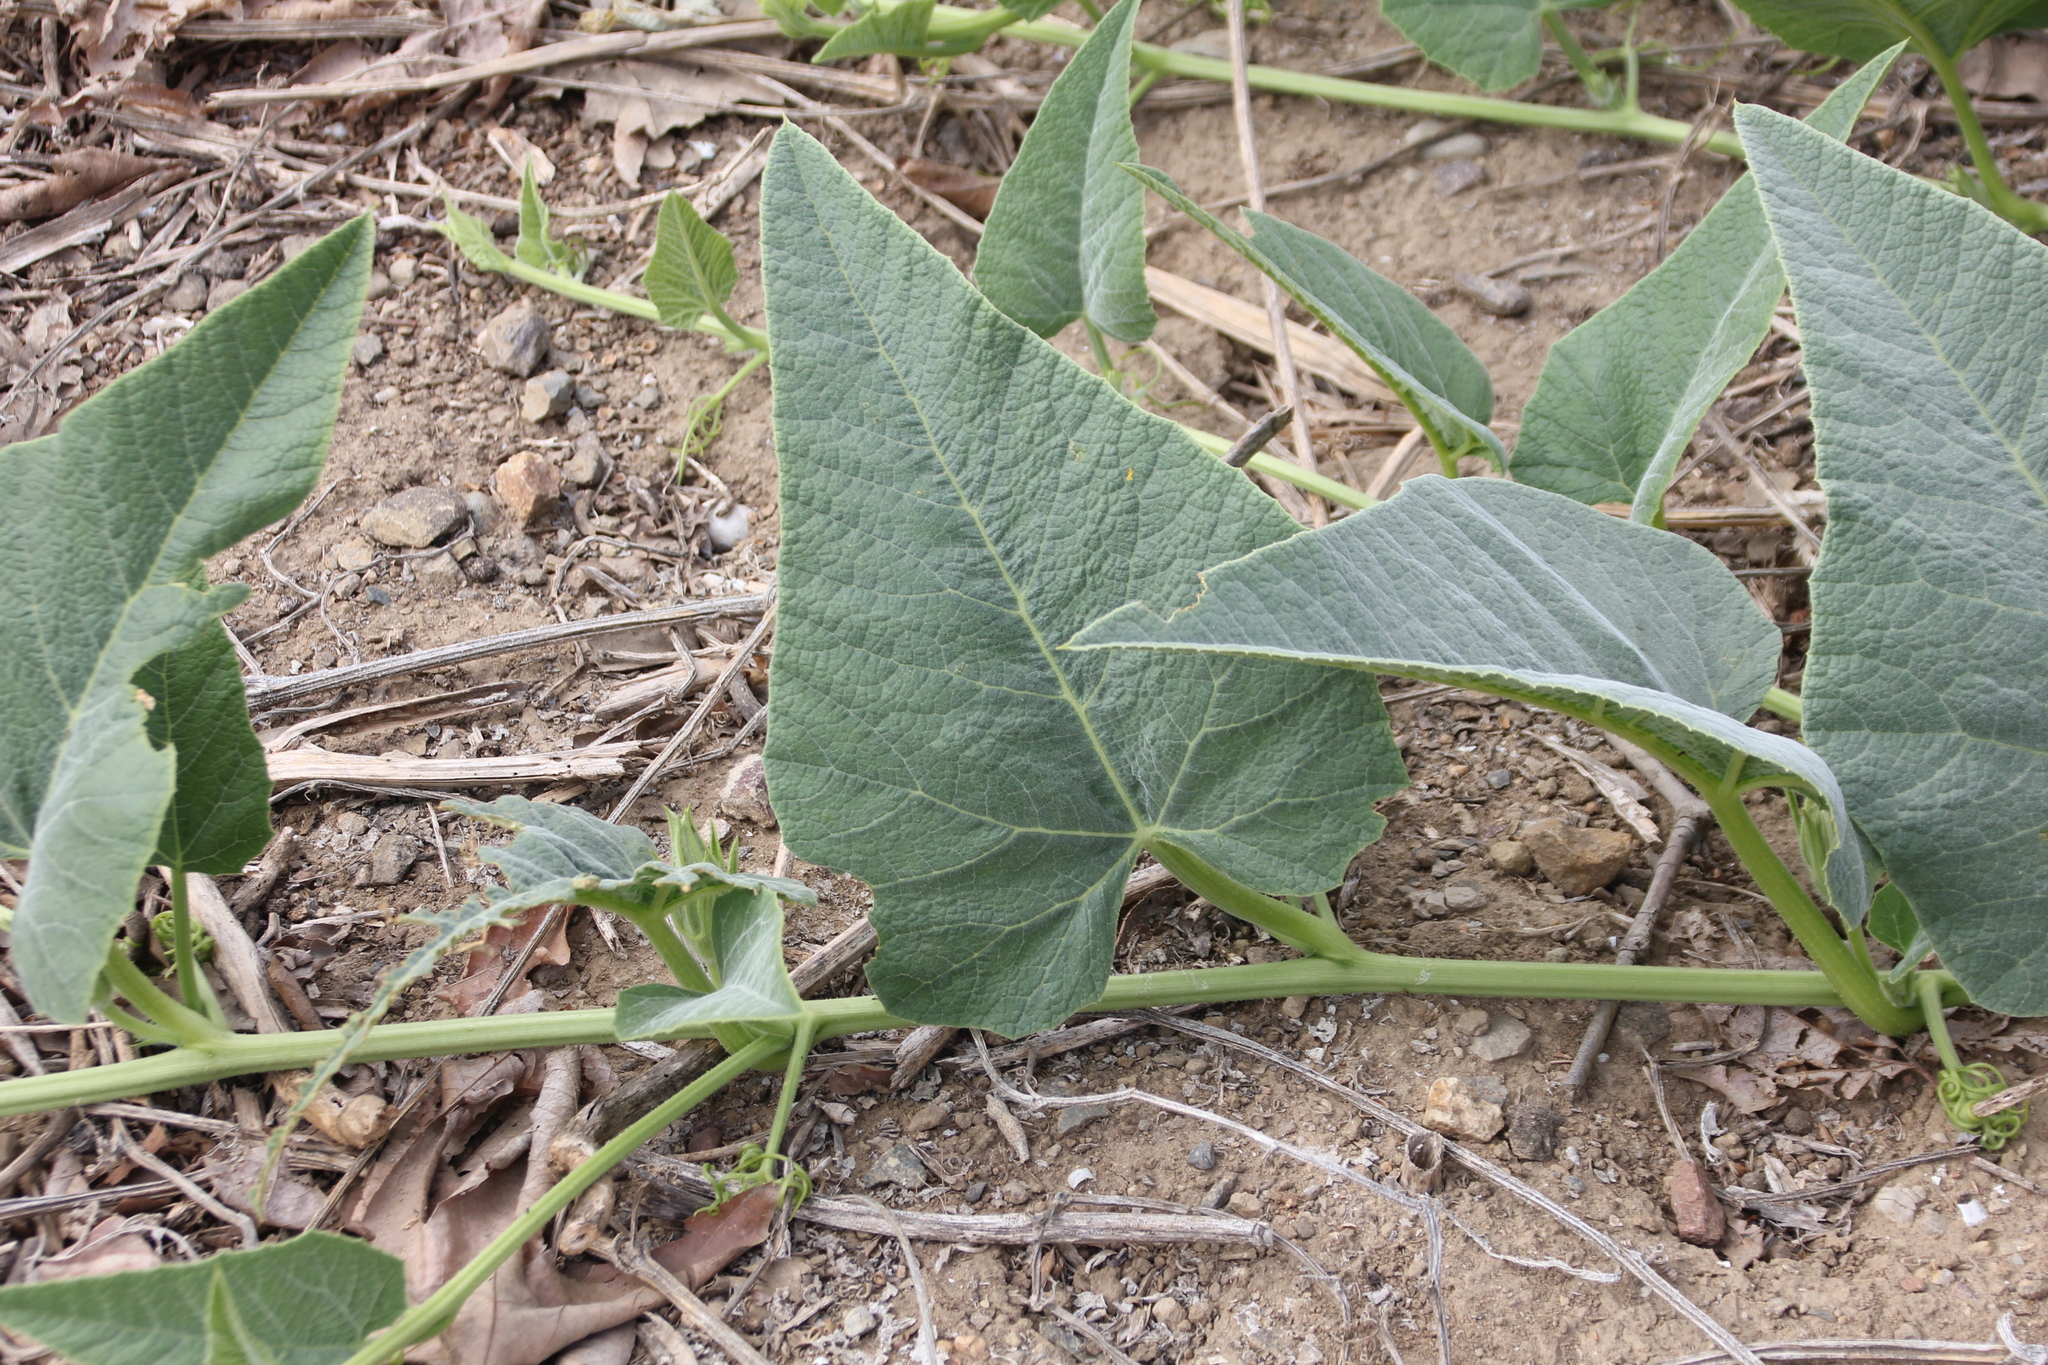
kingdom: Plantae
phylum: Tracheophyta
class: Magnoliopsida
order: Cucurbitales
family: Cucurbitaceae
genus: Cucurbita
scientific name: Cucurbita foetidissima
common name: Buffalo gourd
